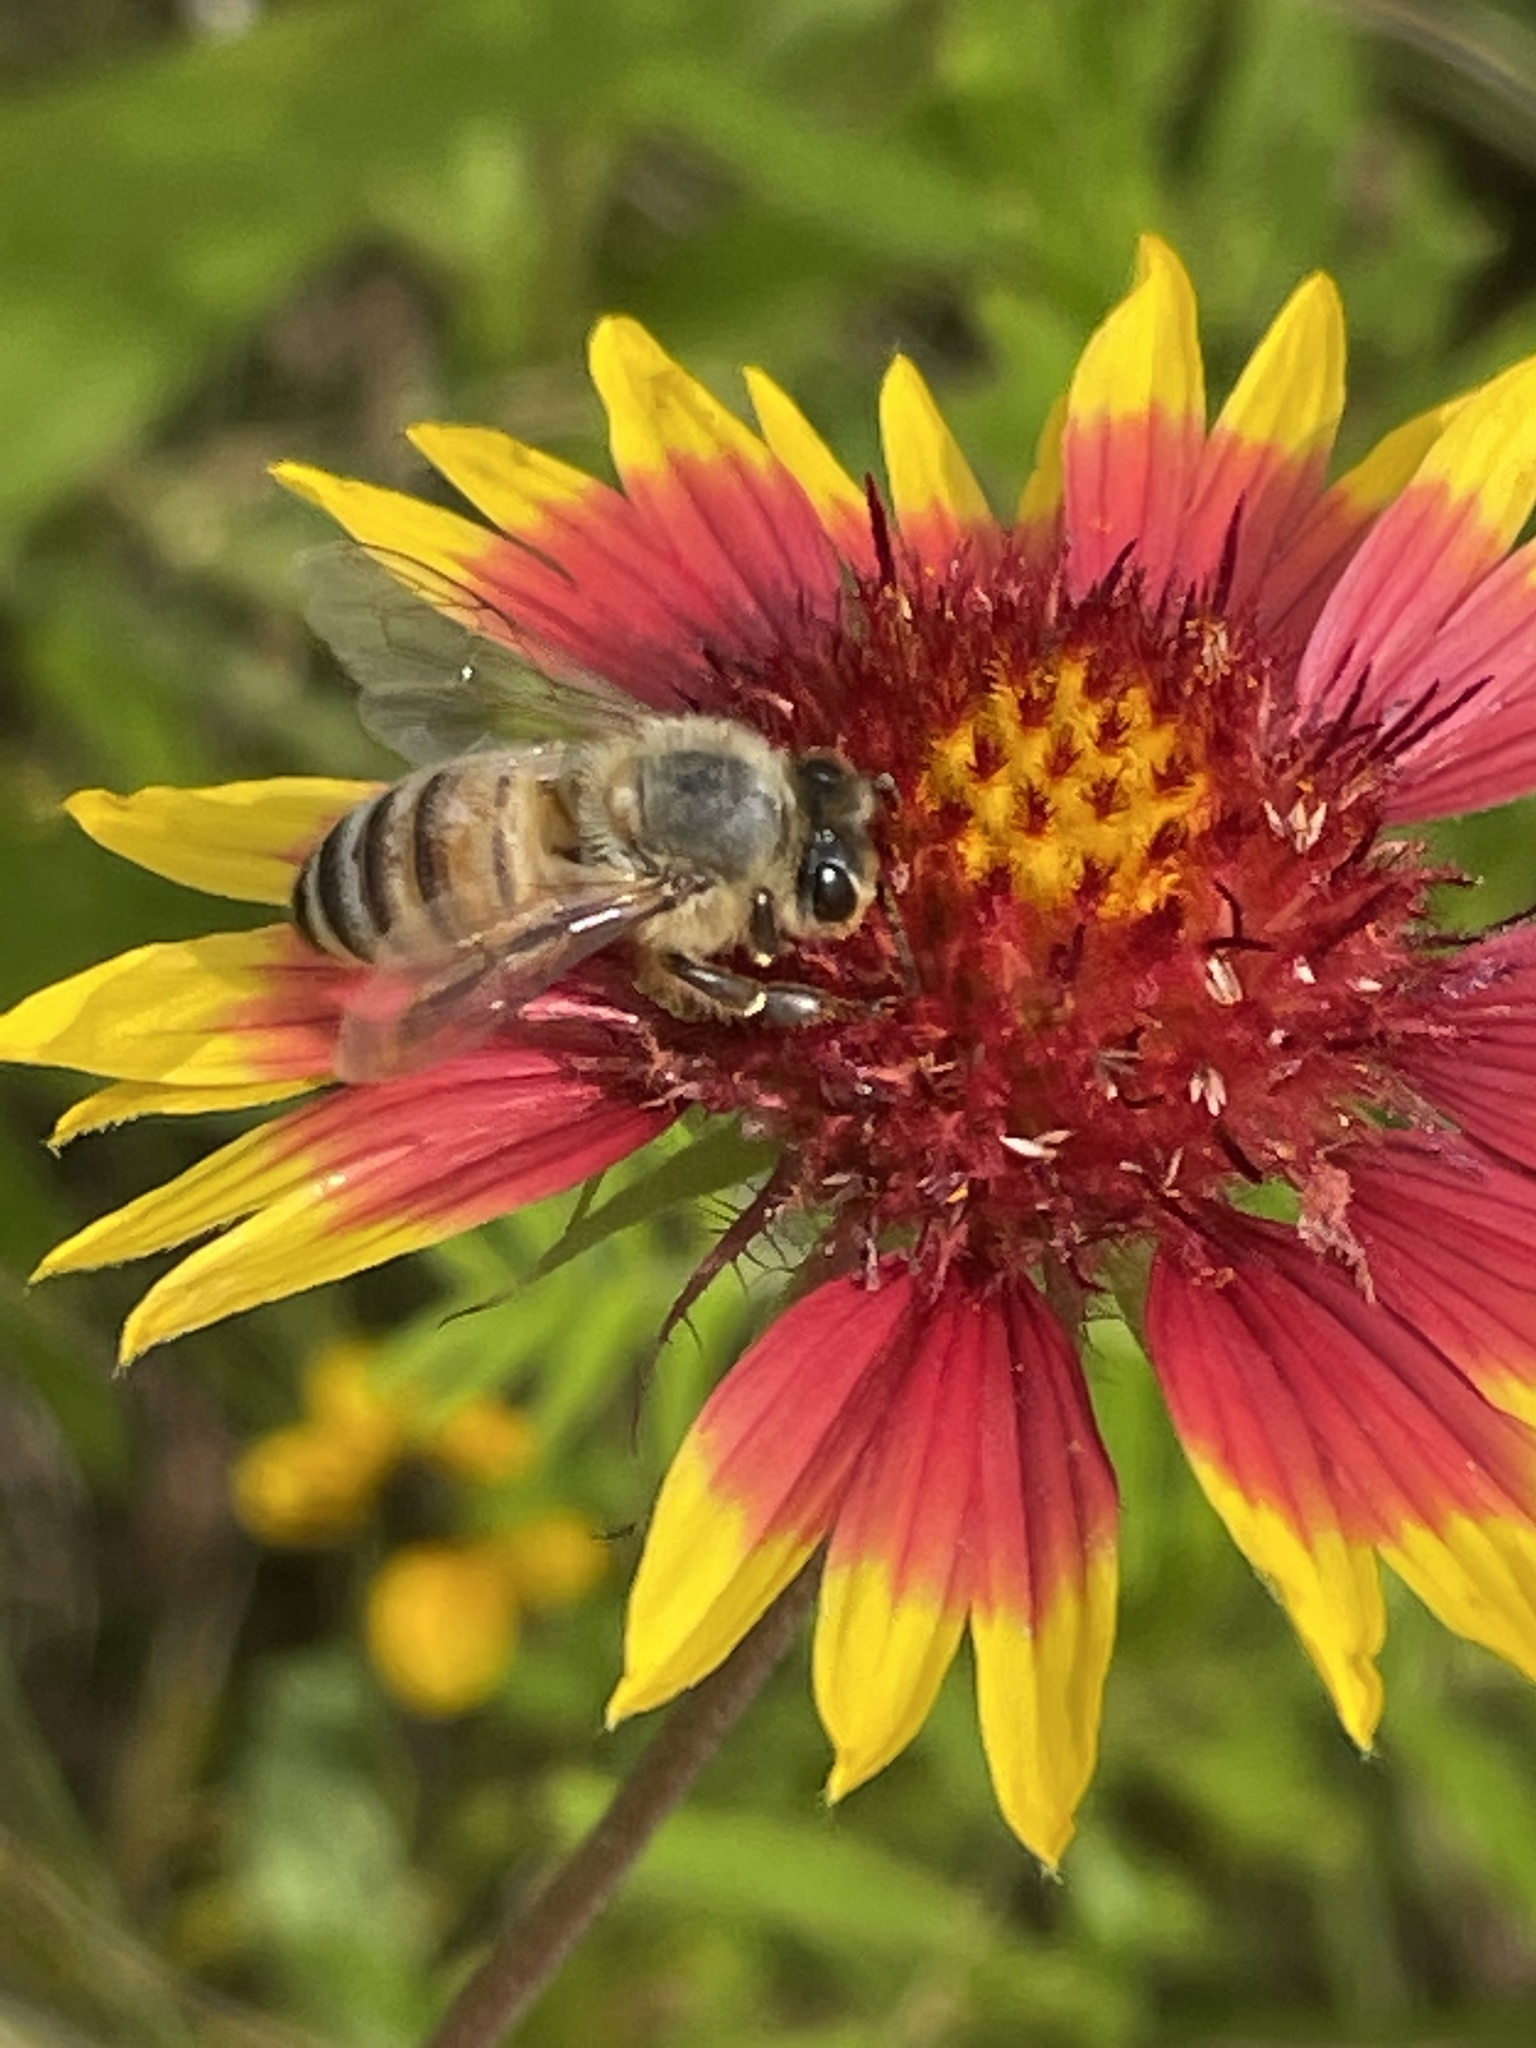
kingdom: Animalia
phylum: Arthropoda
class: Insecta
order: Hymenoptera
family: Apidae
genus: Apis
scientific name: Apis mellifera
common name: Honey bee
